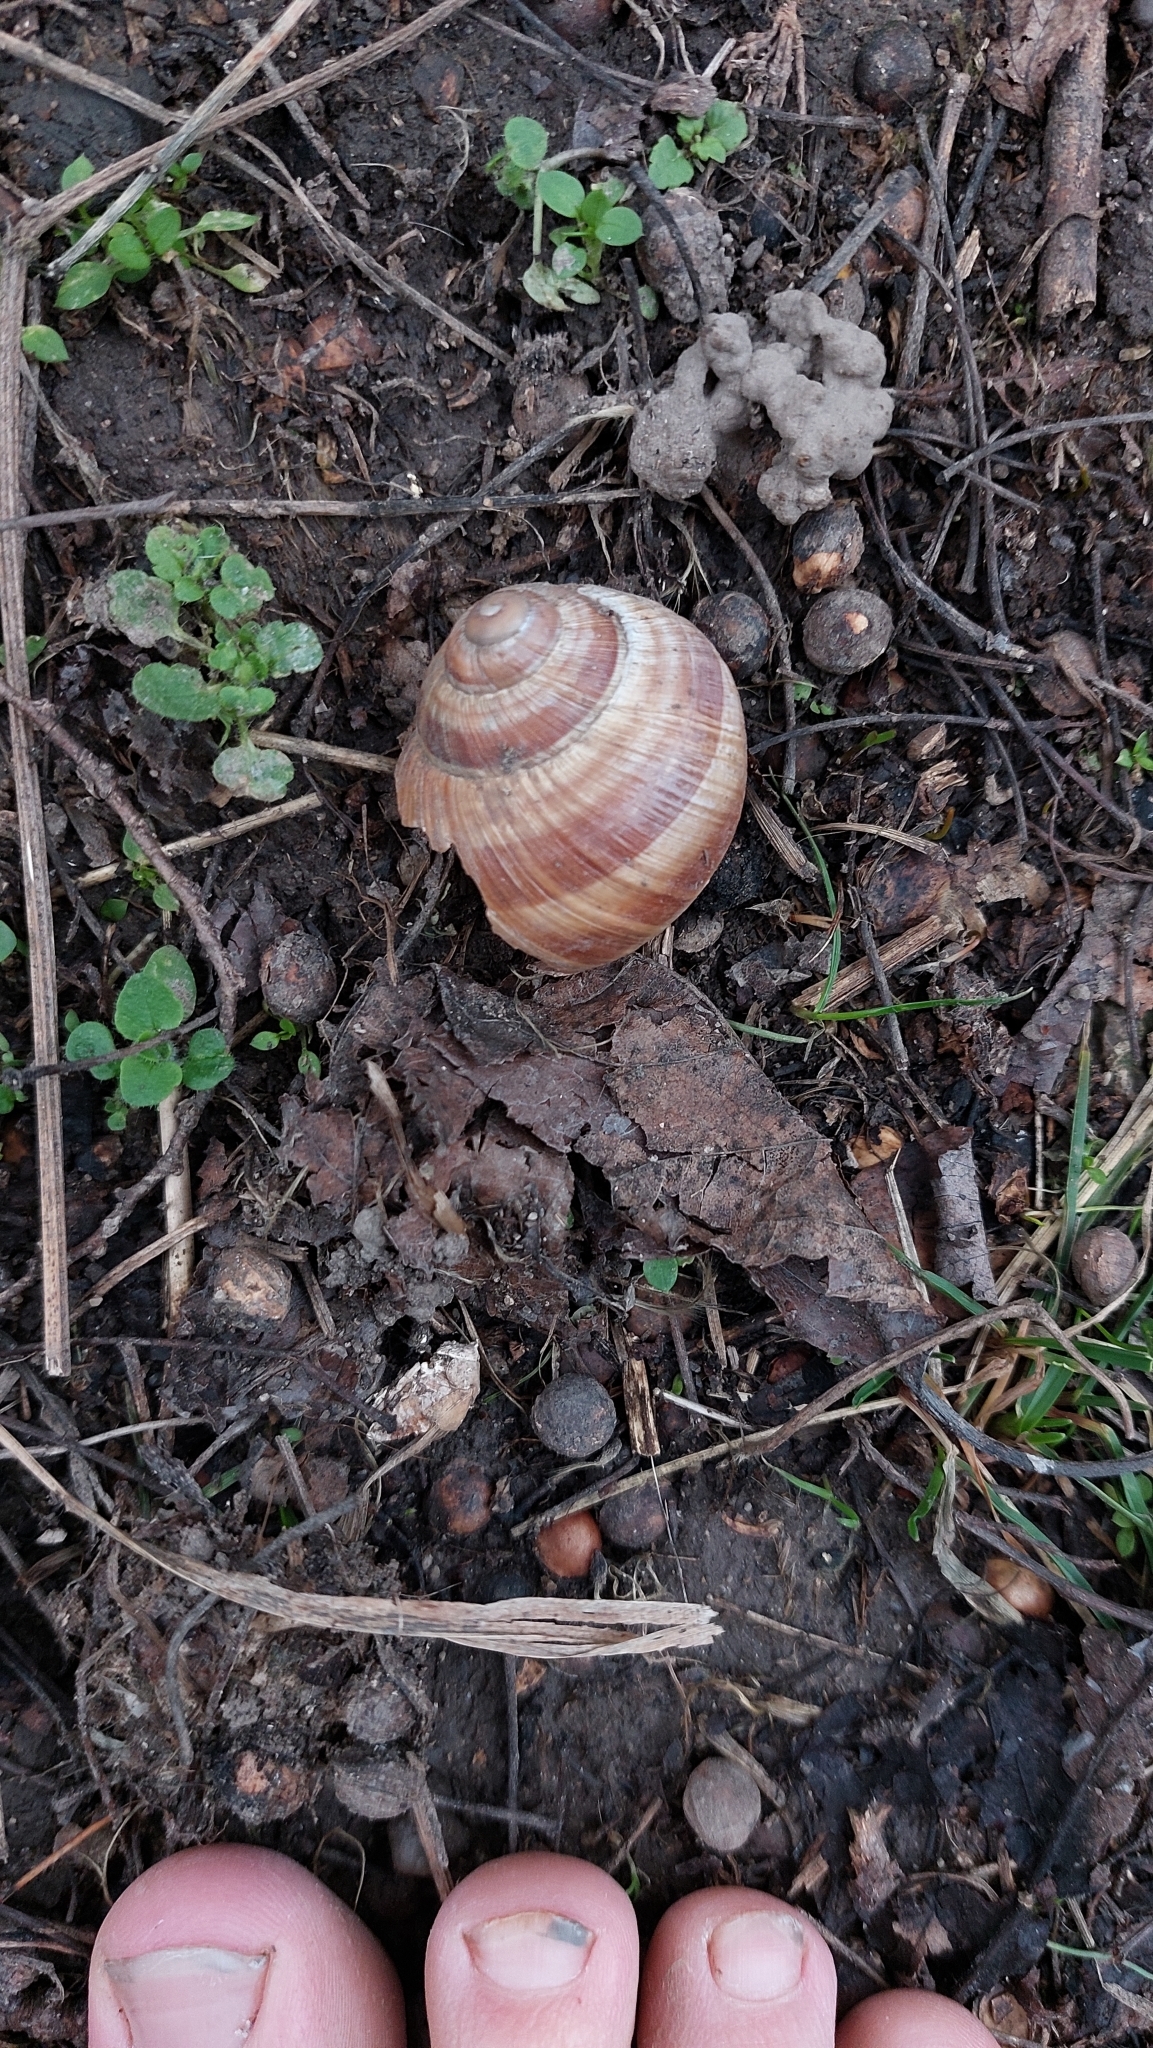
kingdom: Animalia
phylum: Mollusca
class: Gastropoda
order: Stylommatophora
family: Helicidae
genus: Helix
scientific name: Helix pomatia
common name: Roman snail
